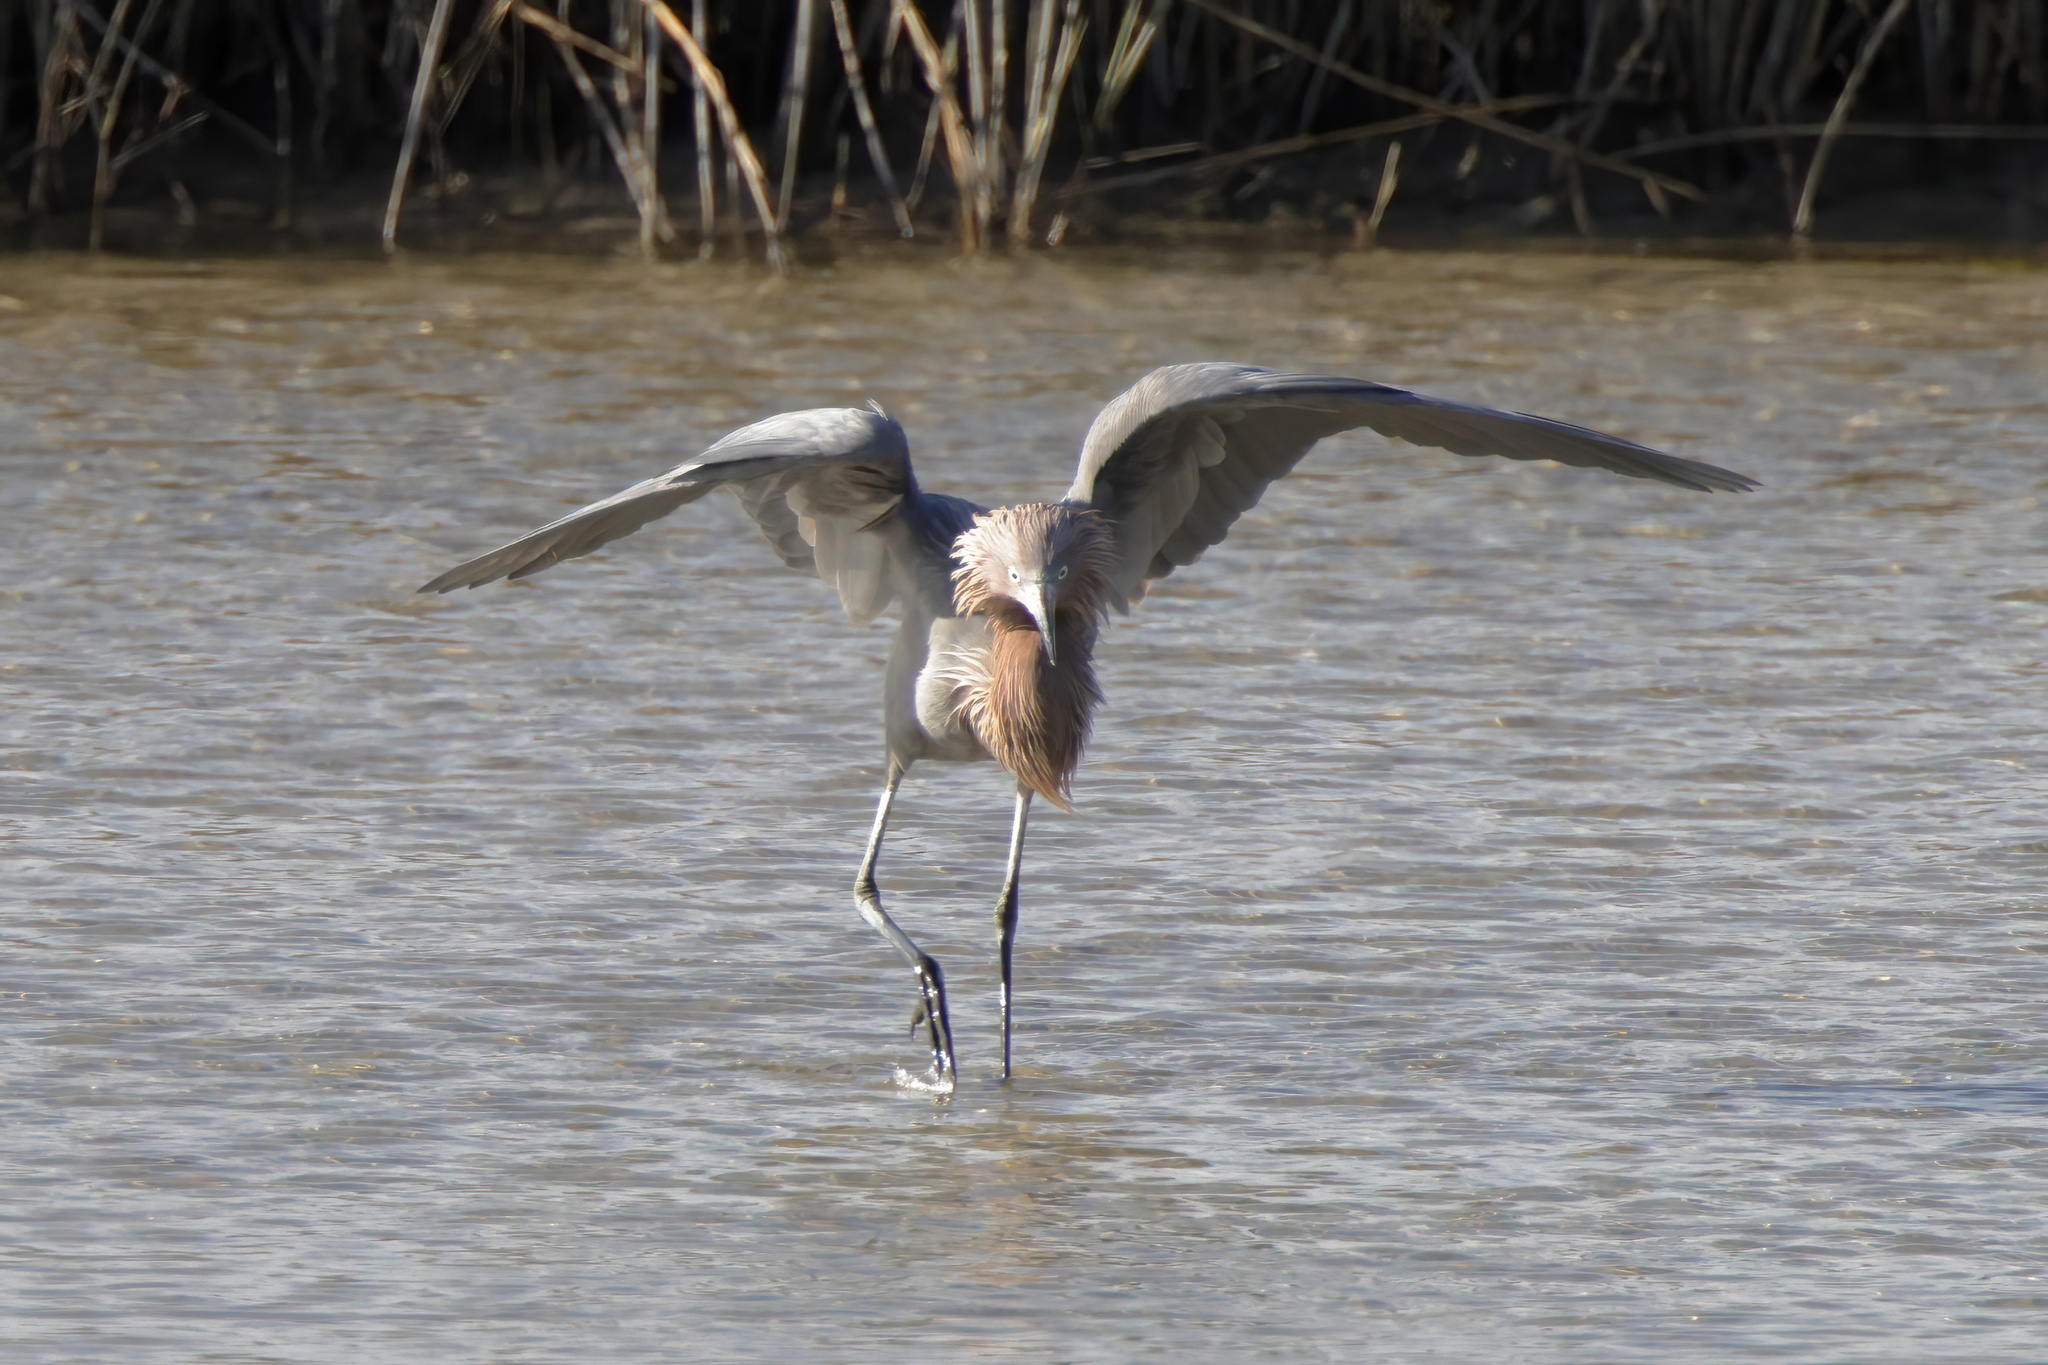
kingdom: Animalia
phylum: Chordata
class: Aves
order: Pelecaniformes
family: Ardeidae
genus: Egretta
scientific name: Egretta rufescens
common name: Reddish egret
